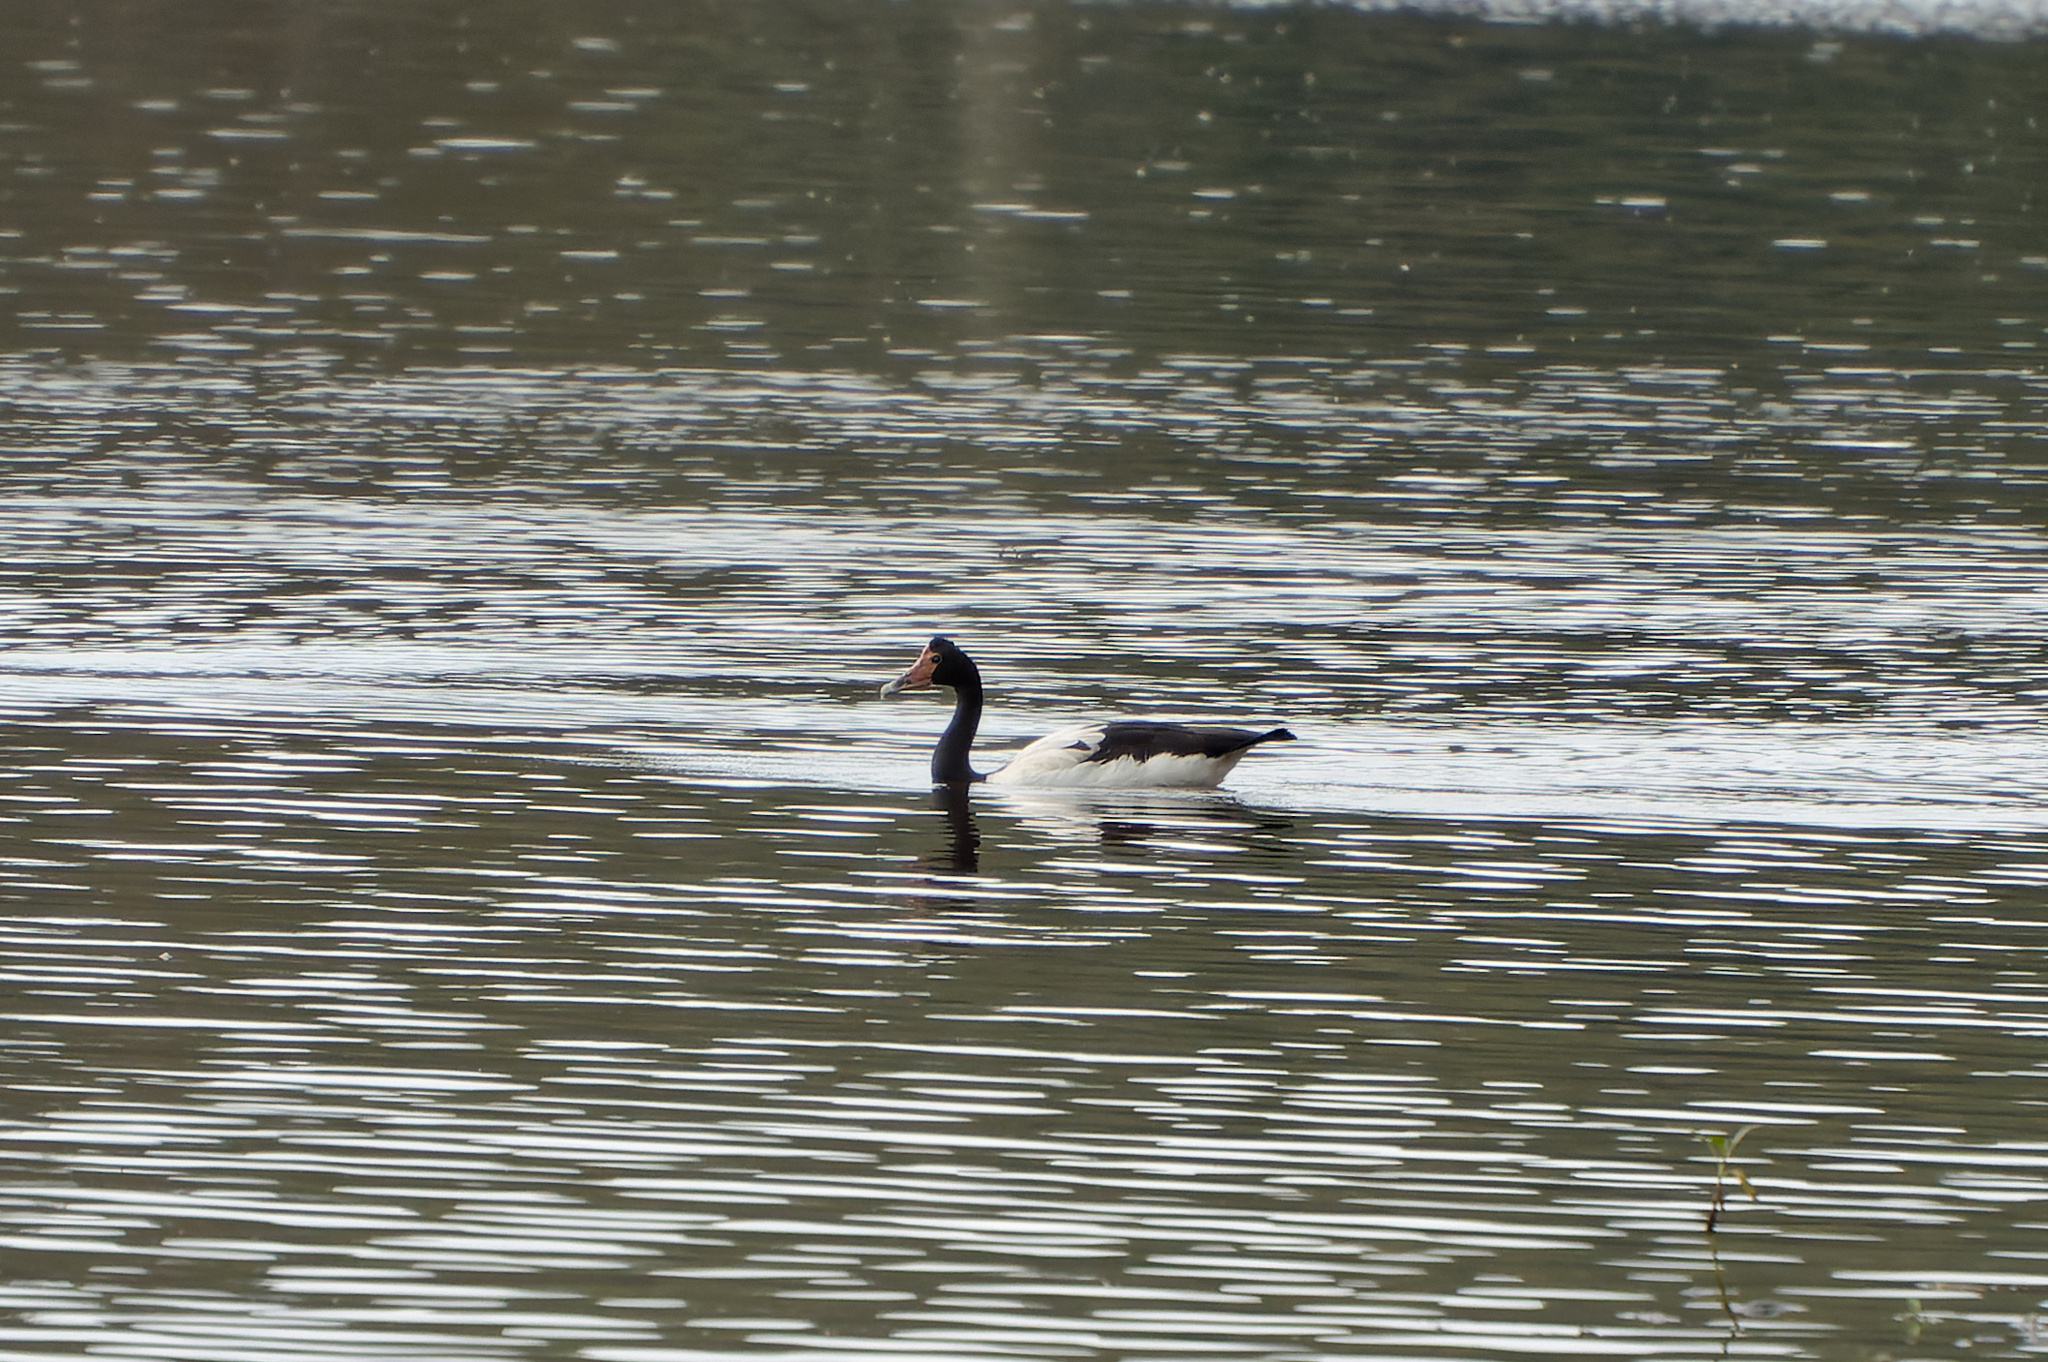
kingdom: Animalia
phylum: Chordata
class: Aves
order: Anseriformes
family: Anseranatidae
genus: Anseranas
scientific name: Anseranas semipalmata
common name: Magpie goose
